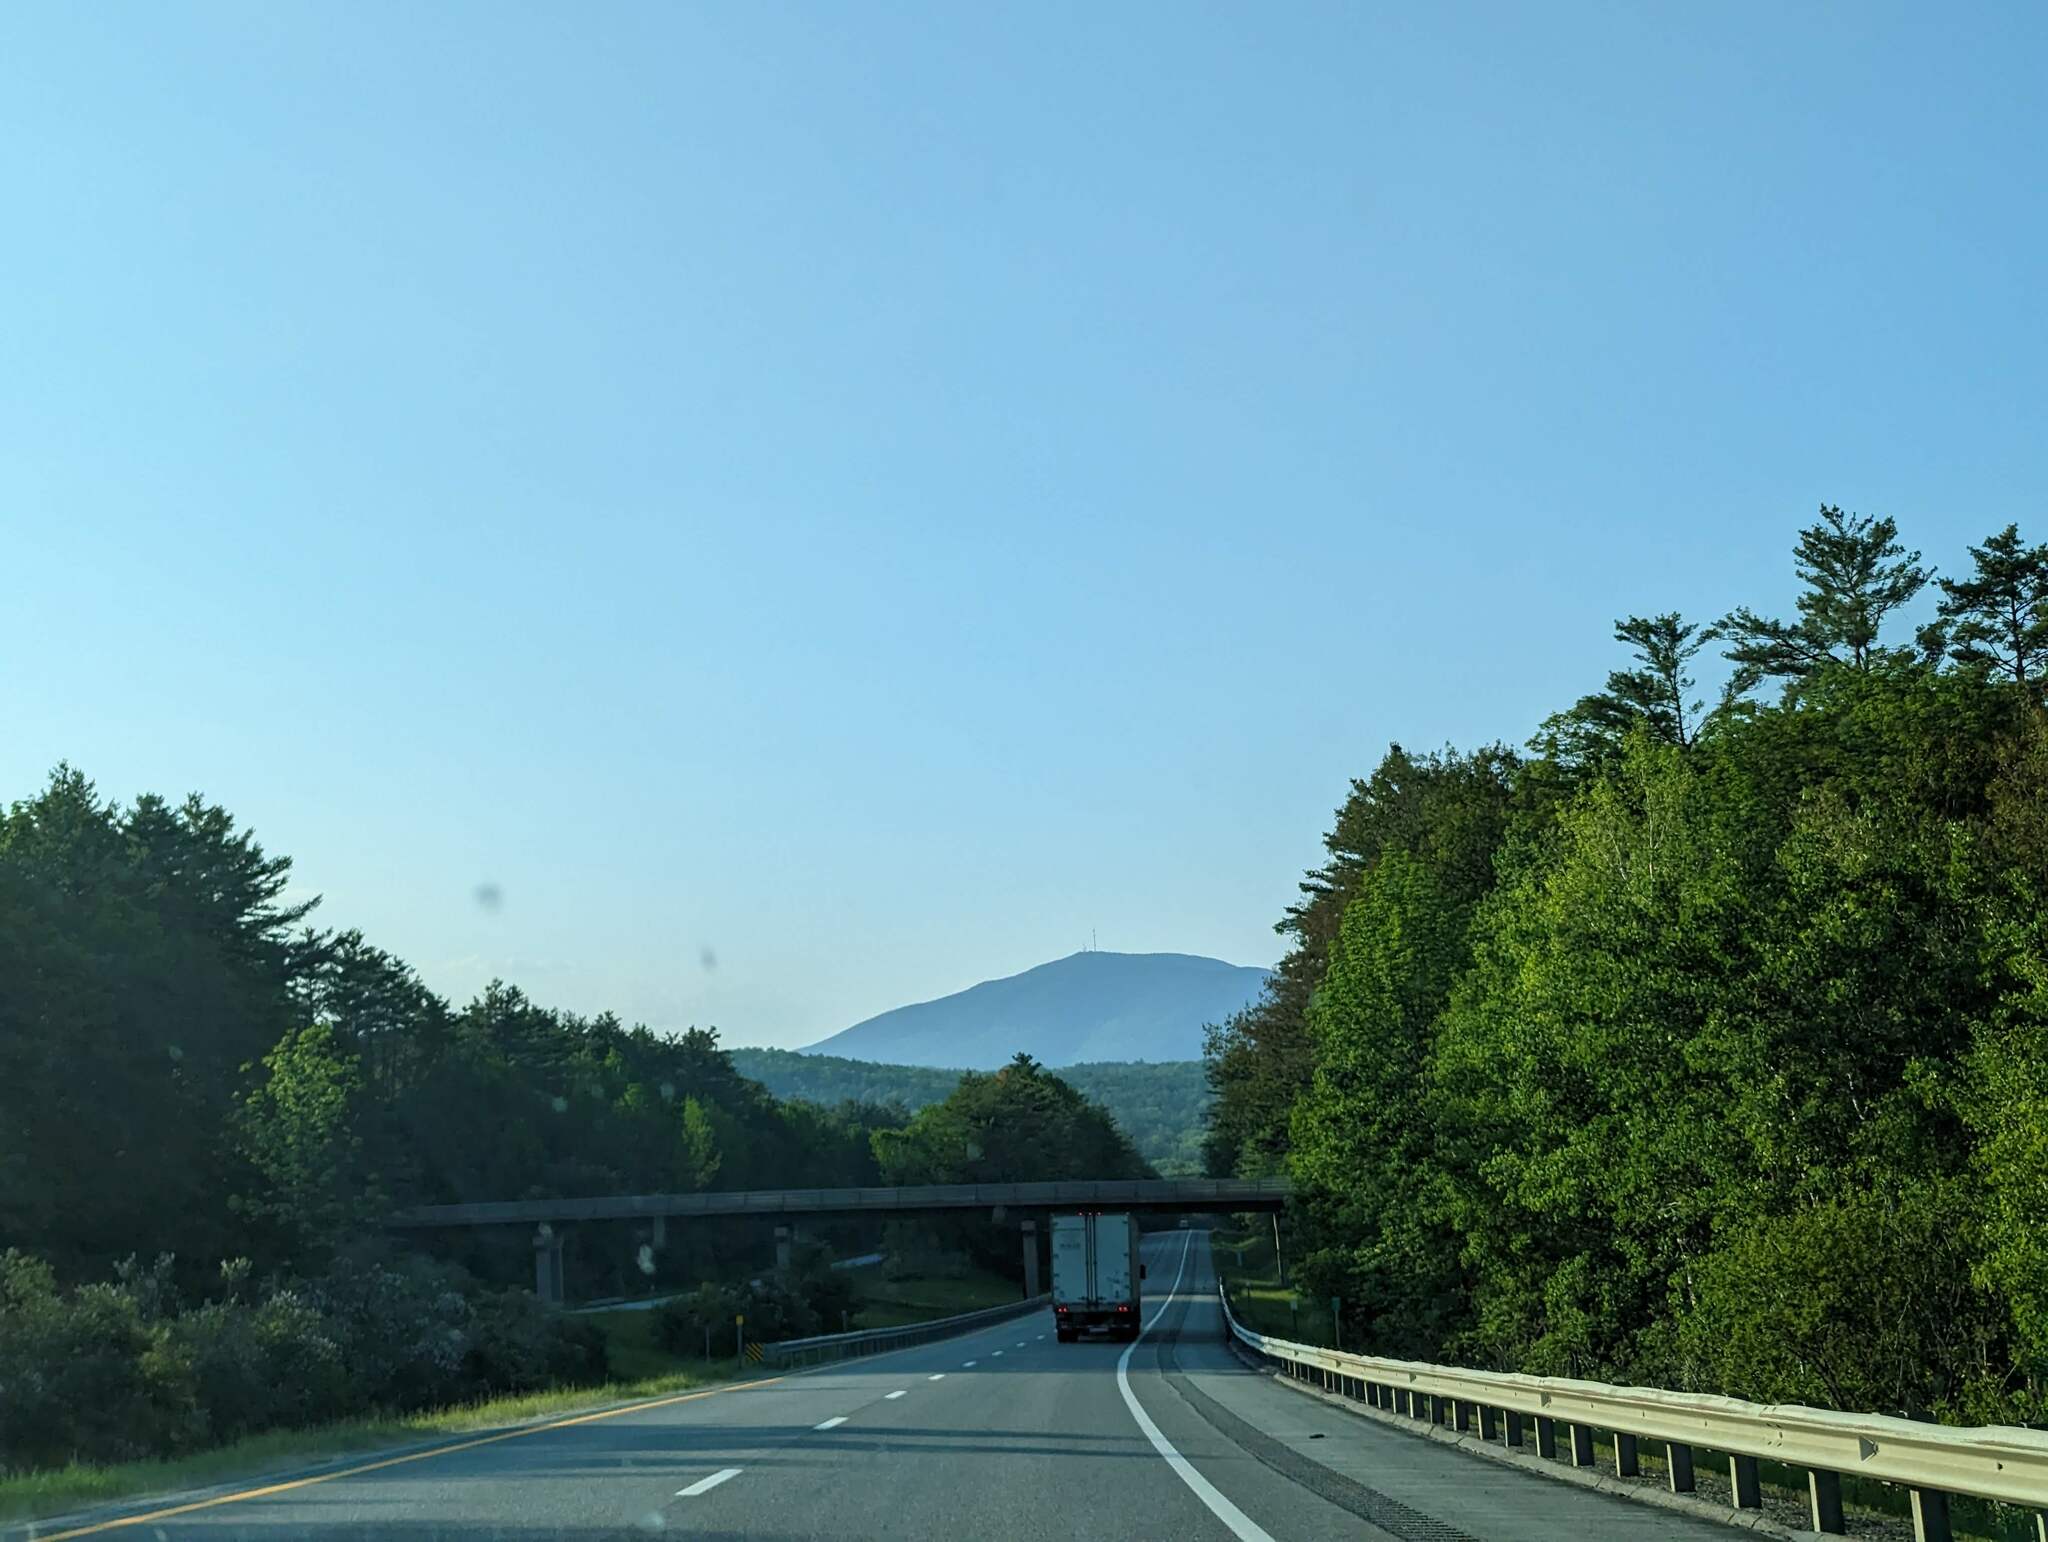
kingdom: Plantae
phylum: Tracheophyta
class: Pinopsida
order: Pinales
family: Pinaceae
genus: Pinus
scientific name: Pinus strobus
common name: Weymouth pine
